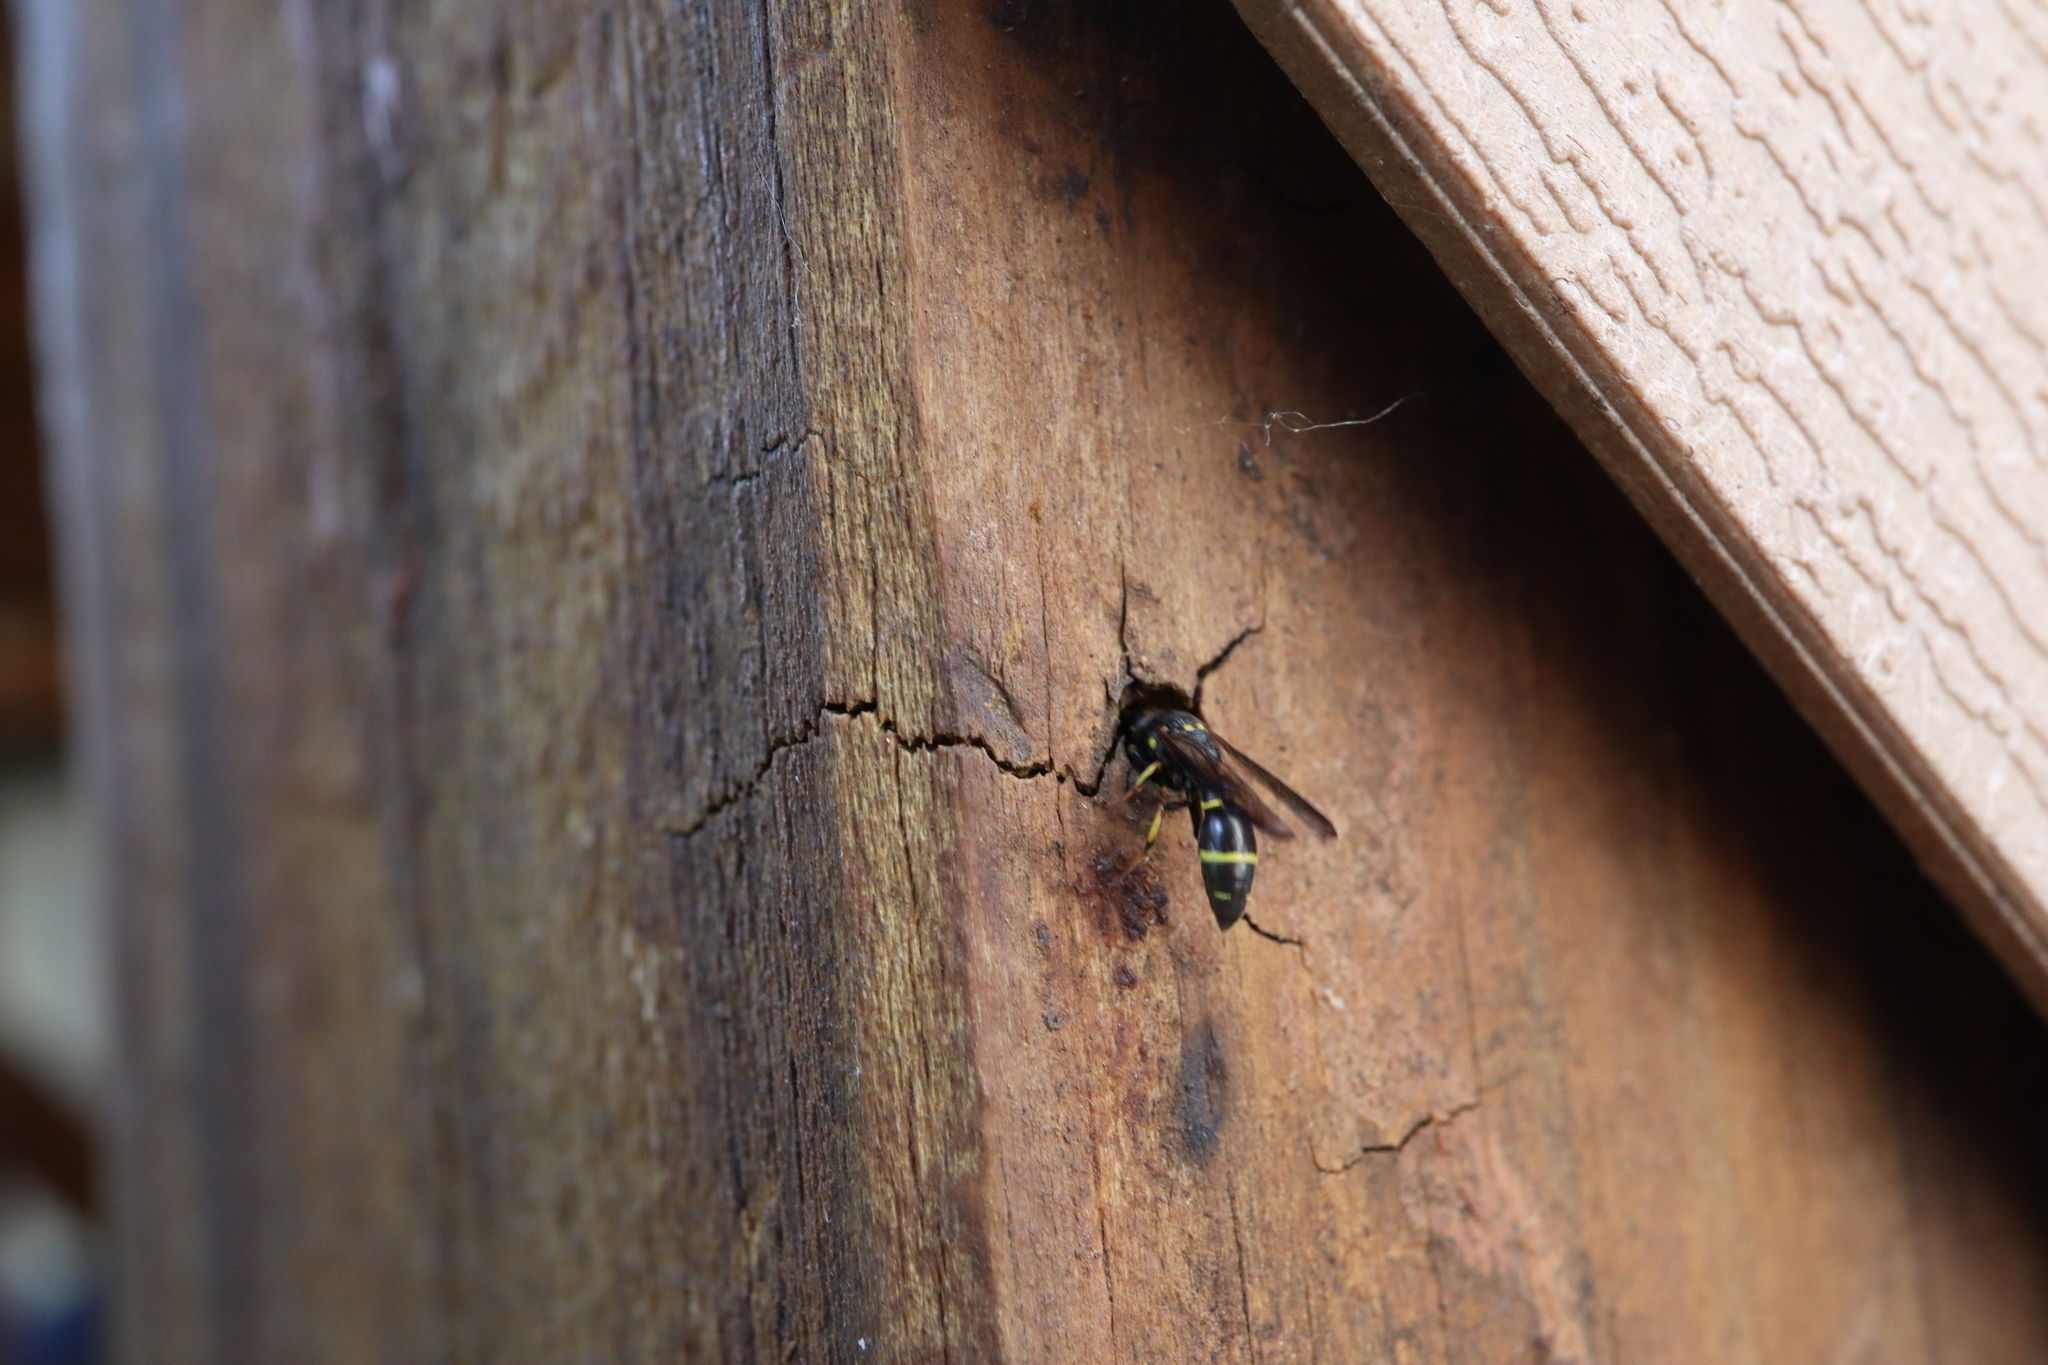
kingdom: Animalia
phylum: Arthropoda
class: Insecta
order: Hymenoptera
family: Eumenidae
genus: Symmorphus
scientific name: Symmorphus
